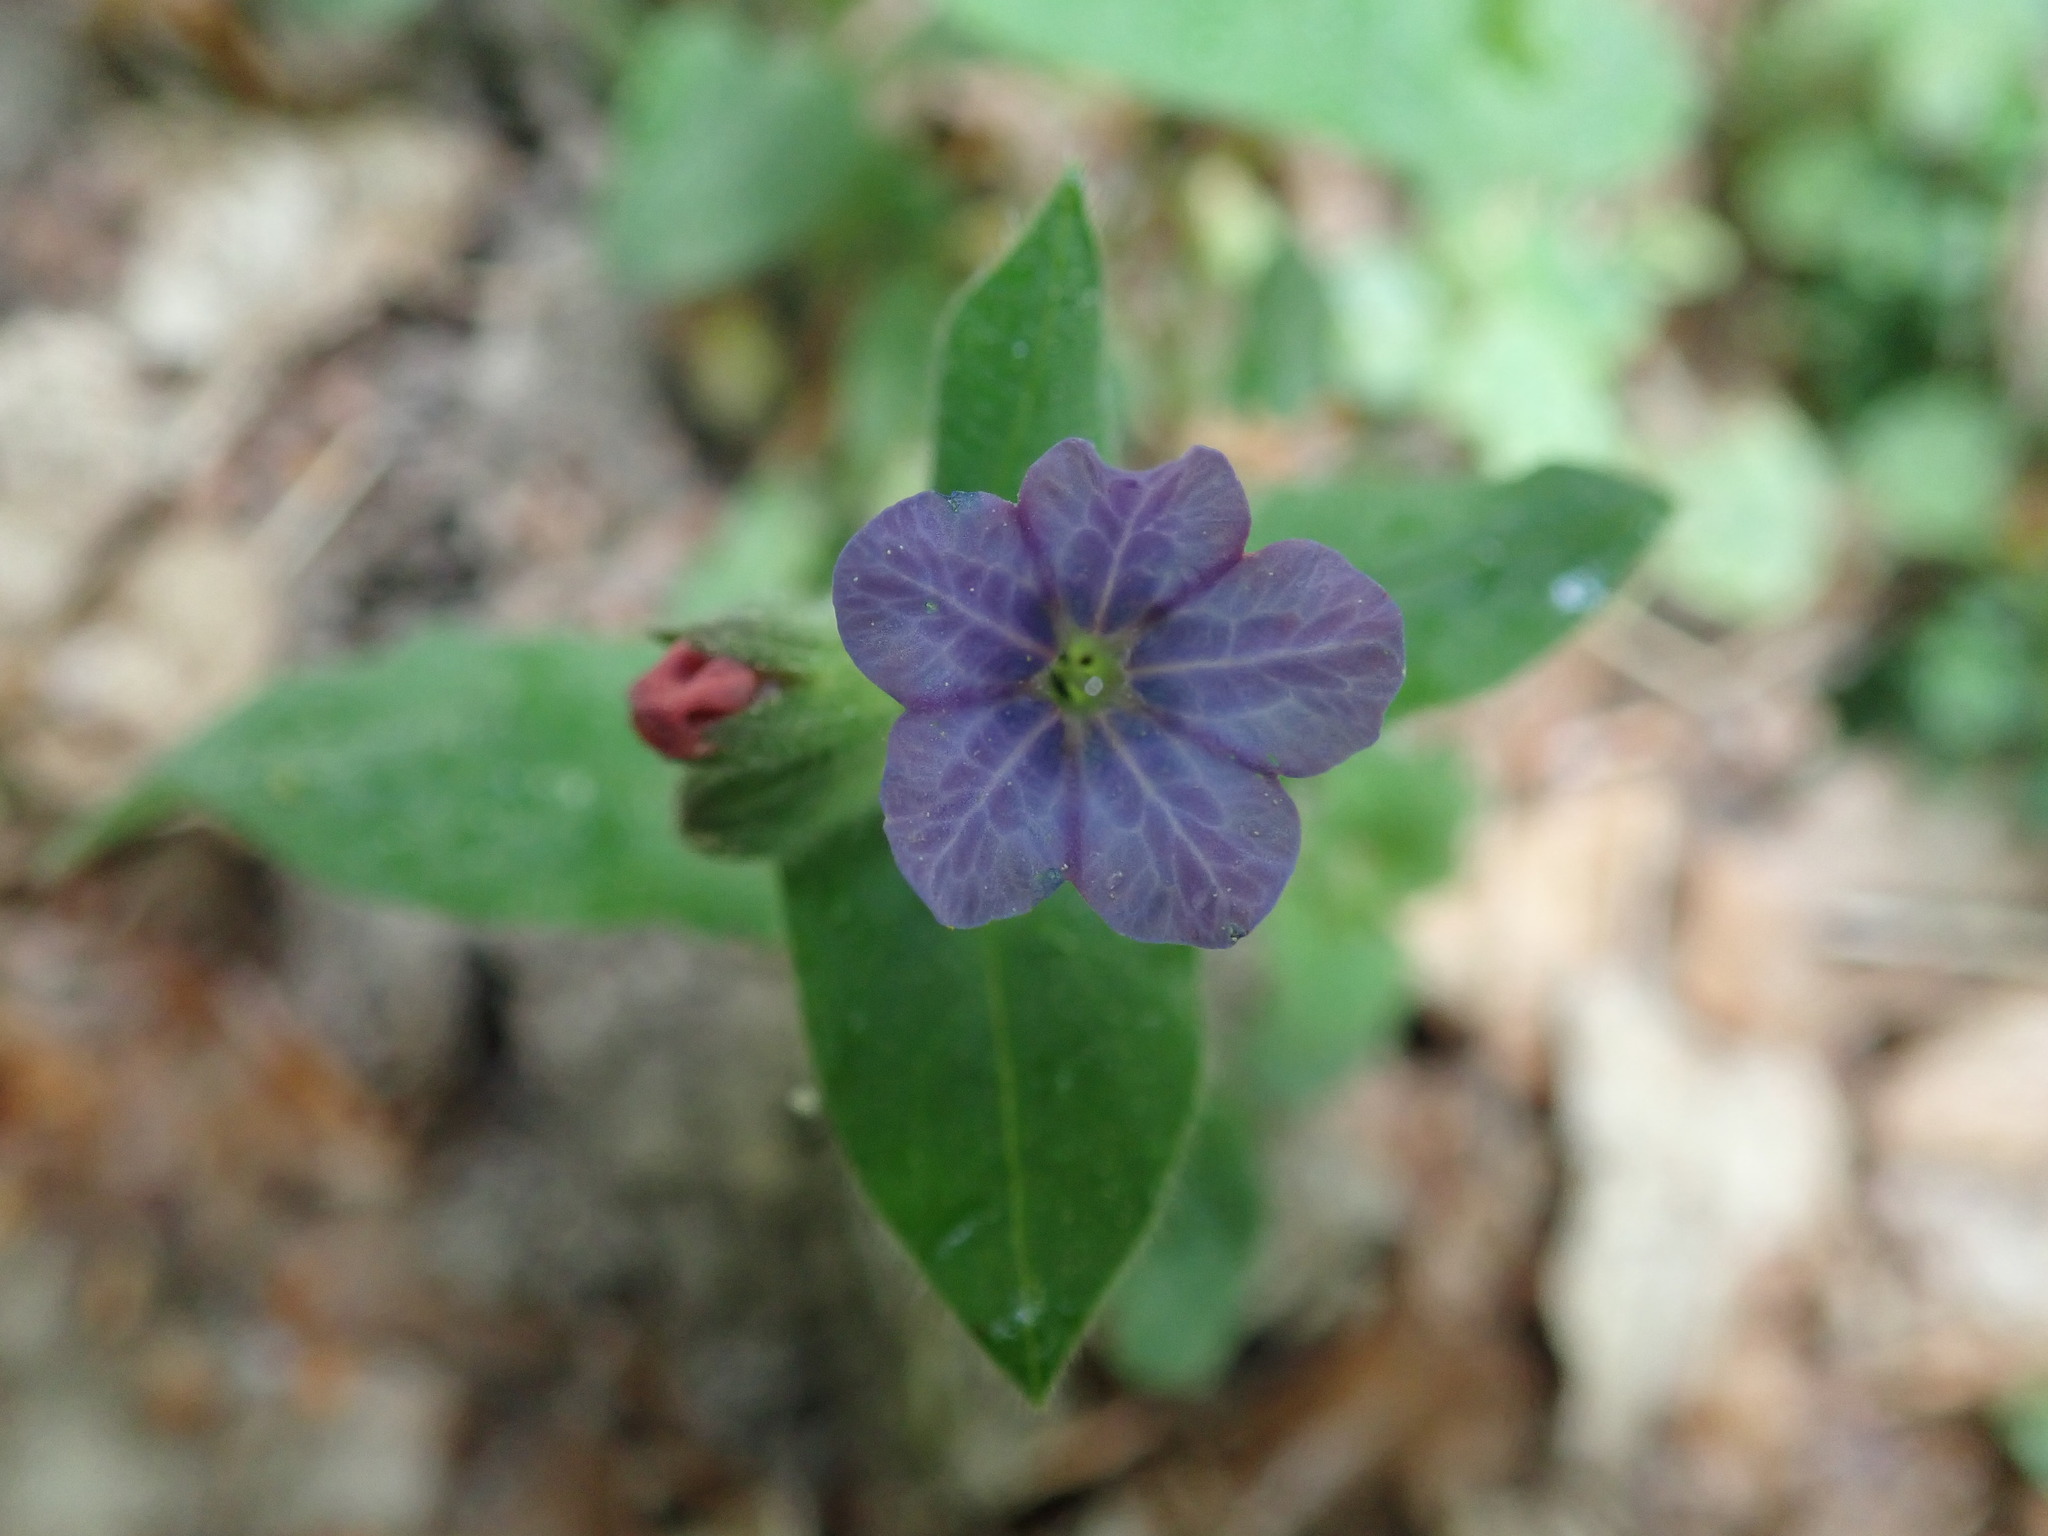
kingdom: Plantae
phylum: Tracheophyta
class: Magnoliopsida
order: Boraginales
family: Boraginaceae
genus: Pulmonaria
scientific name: Pulmonaria obscura
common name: Suffolk lungwort
